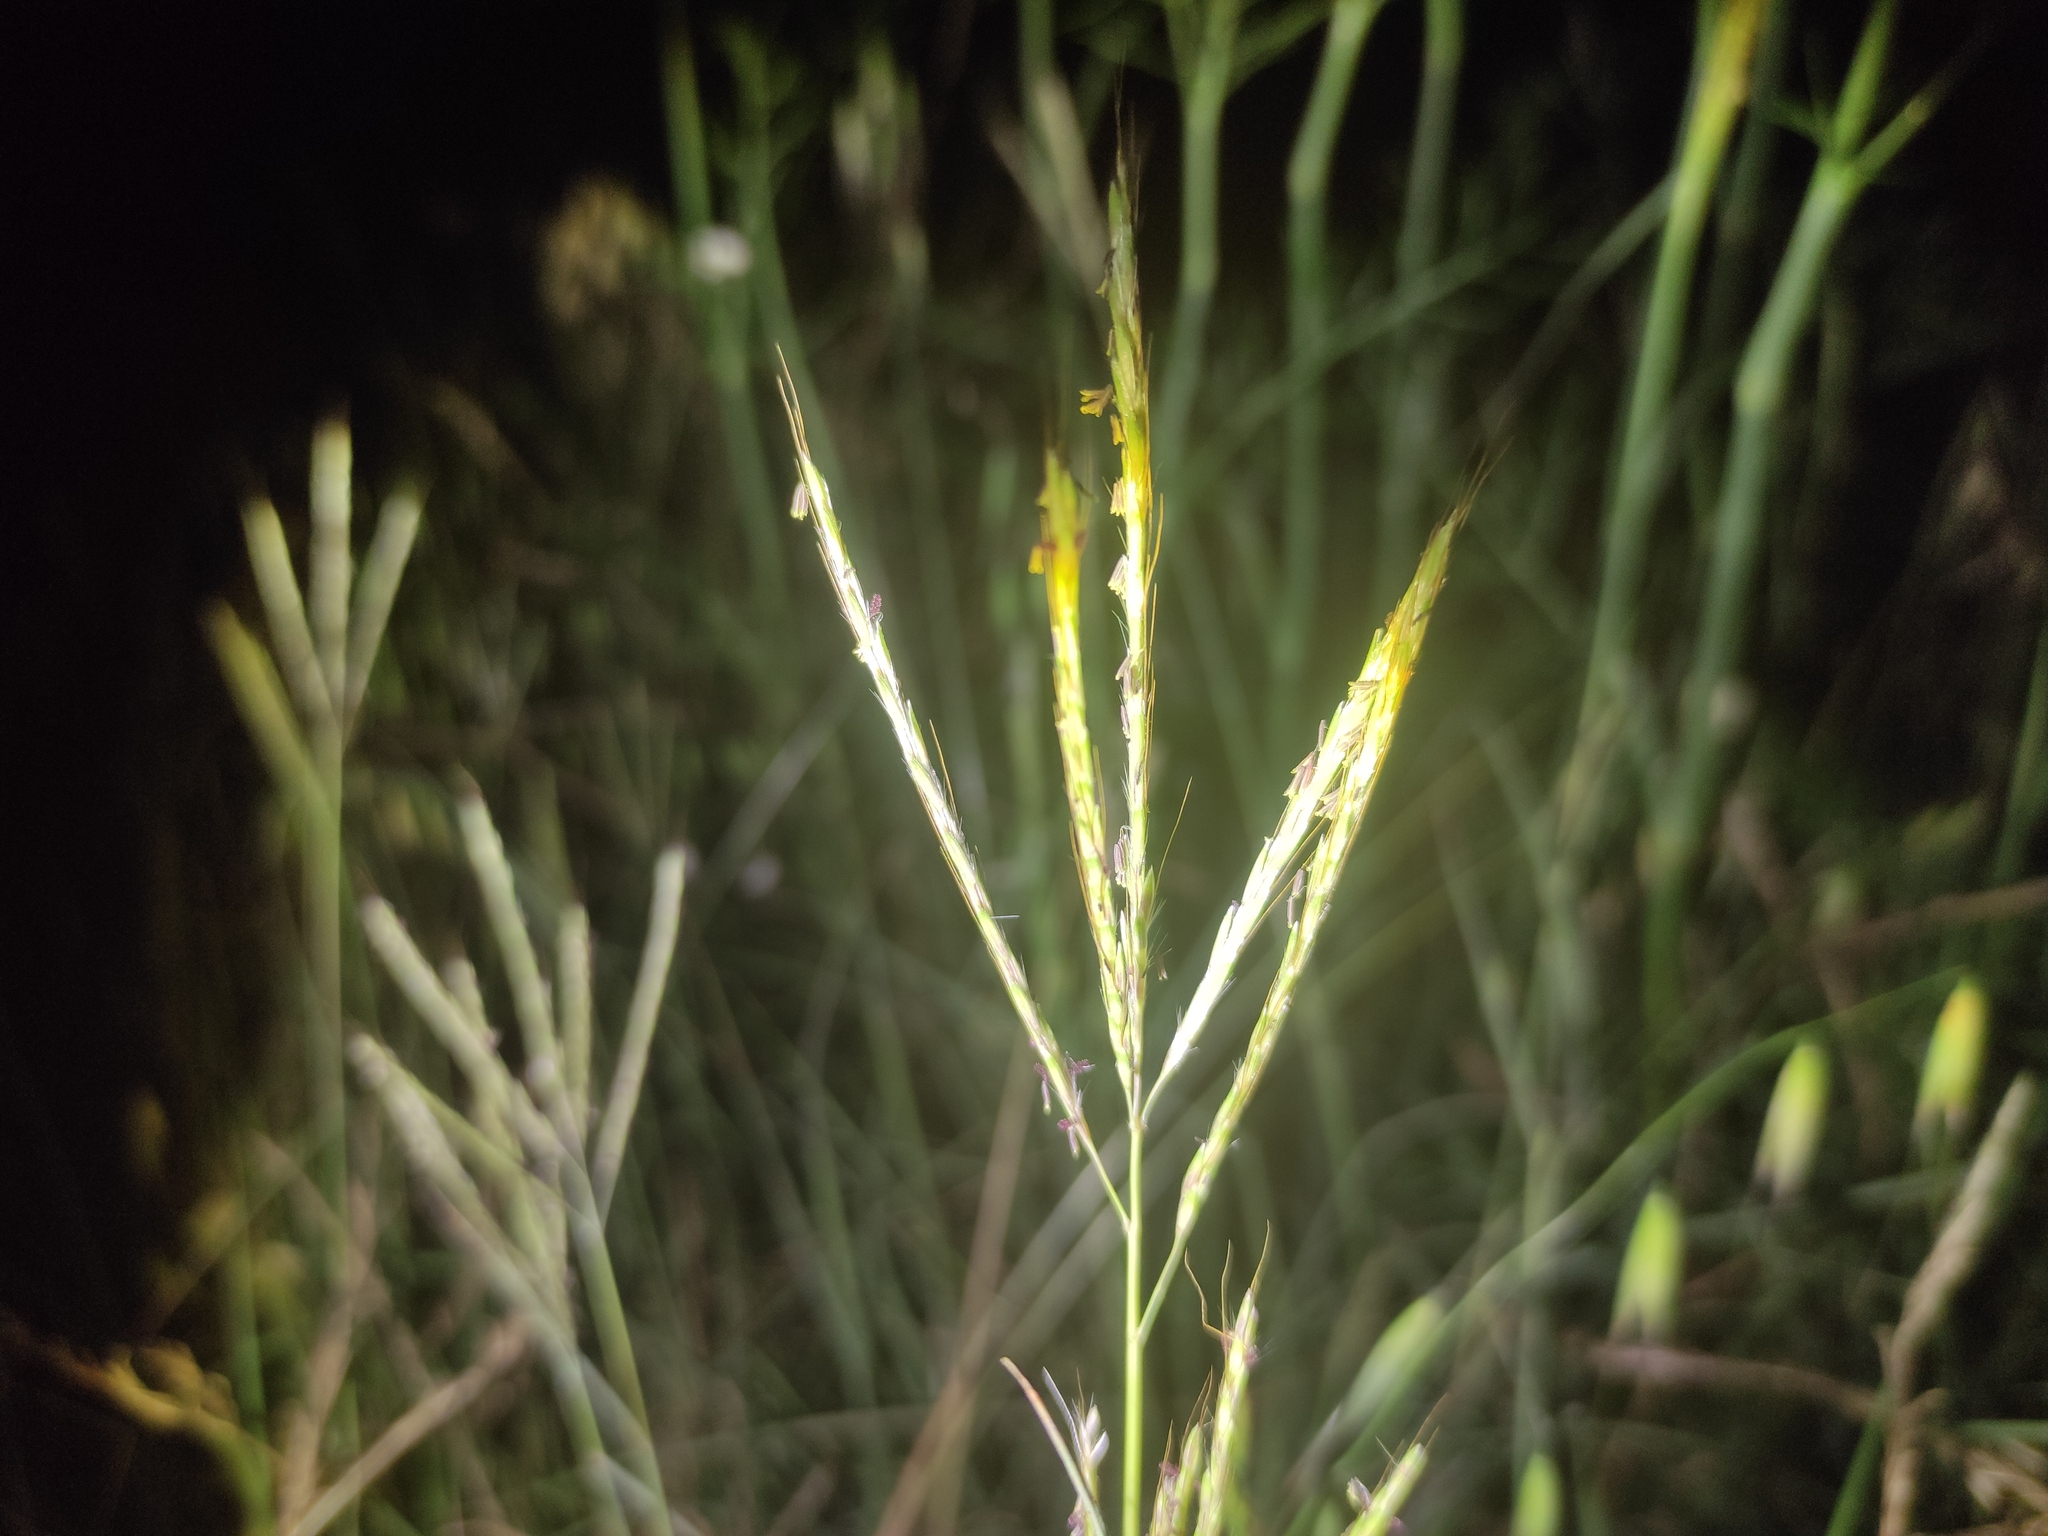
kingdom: Plantae
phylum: Tracheophyta
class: Liliopsida
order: Poales
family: Poaceae
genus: Bothriochloa
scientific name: Bothriochloa ischaemum
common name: Yellow bluestem
